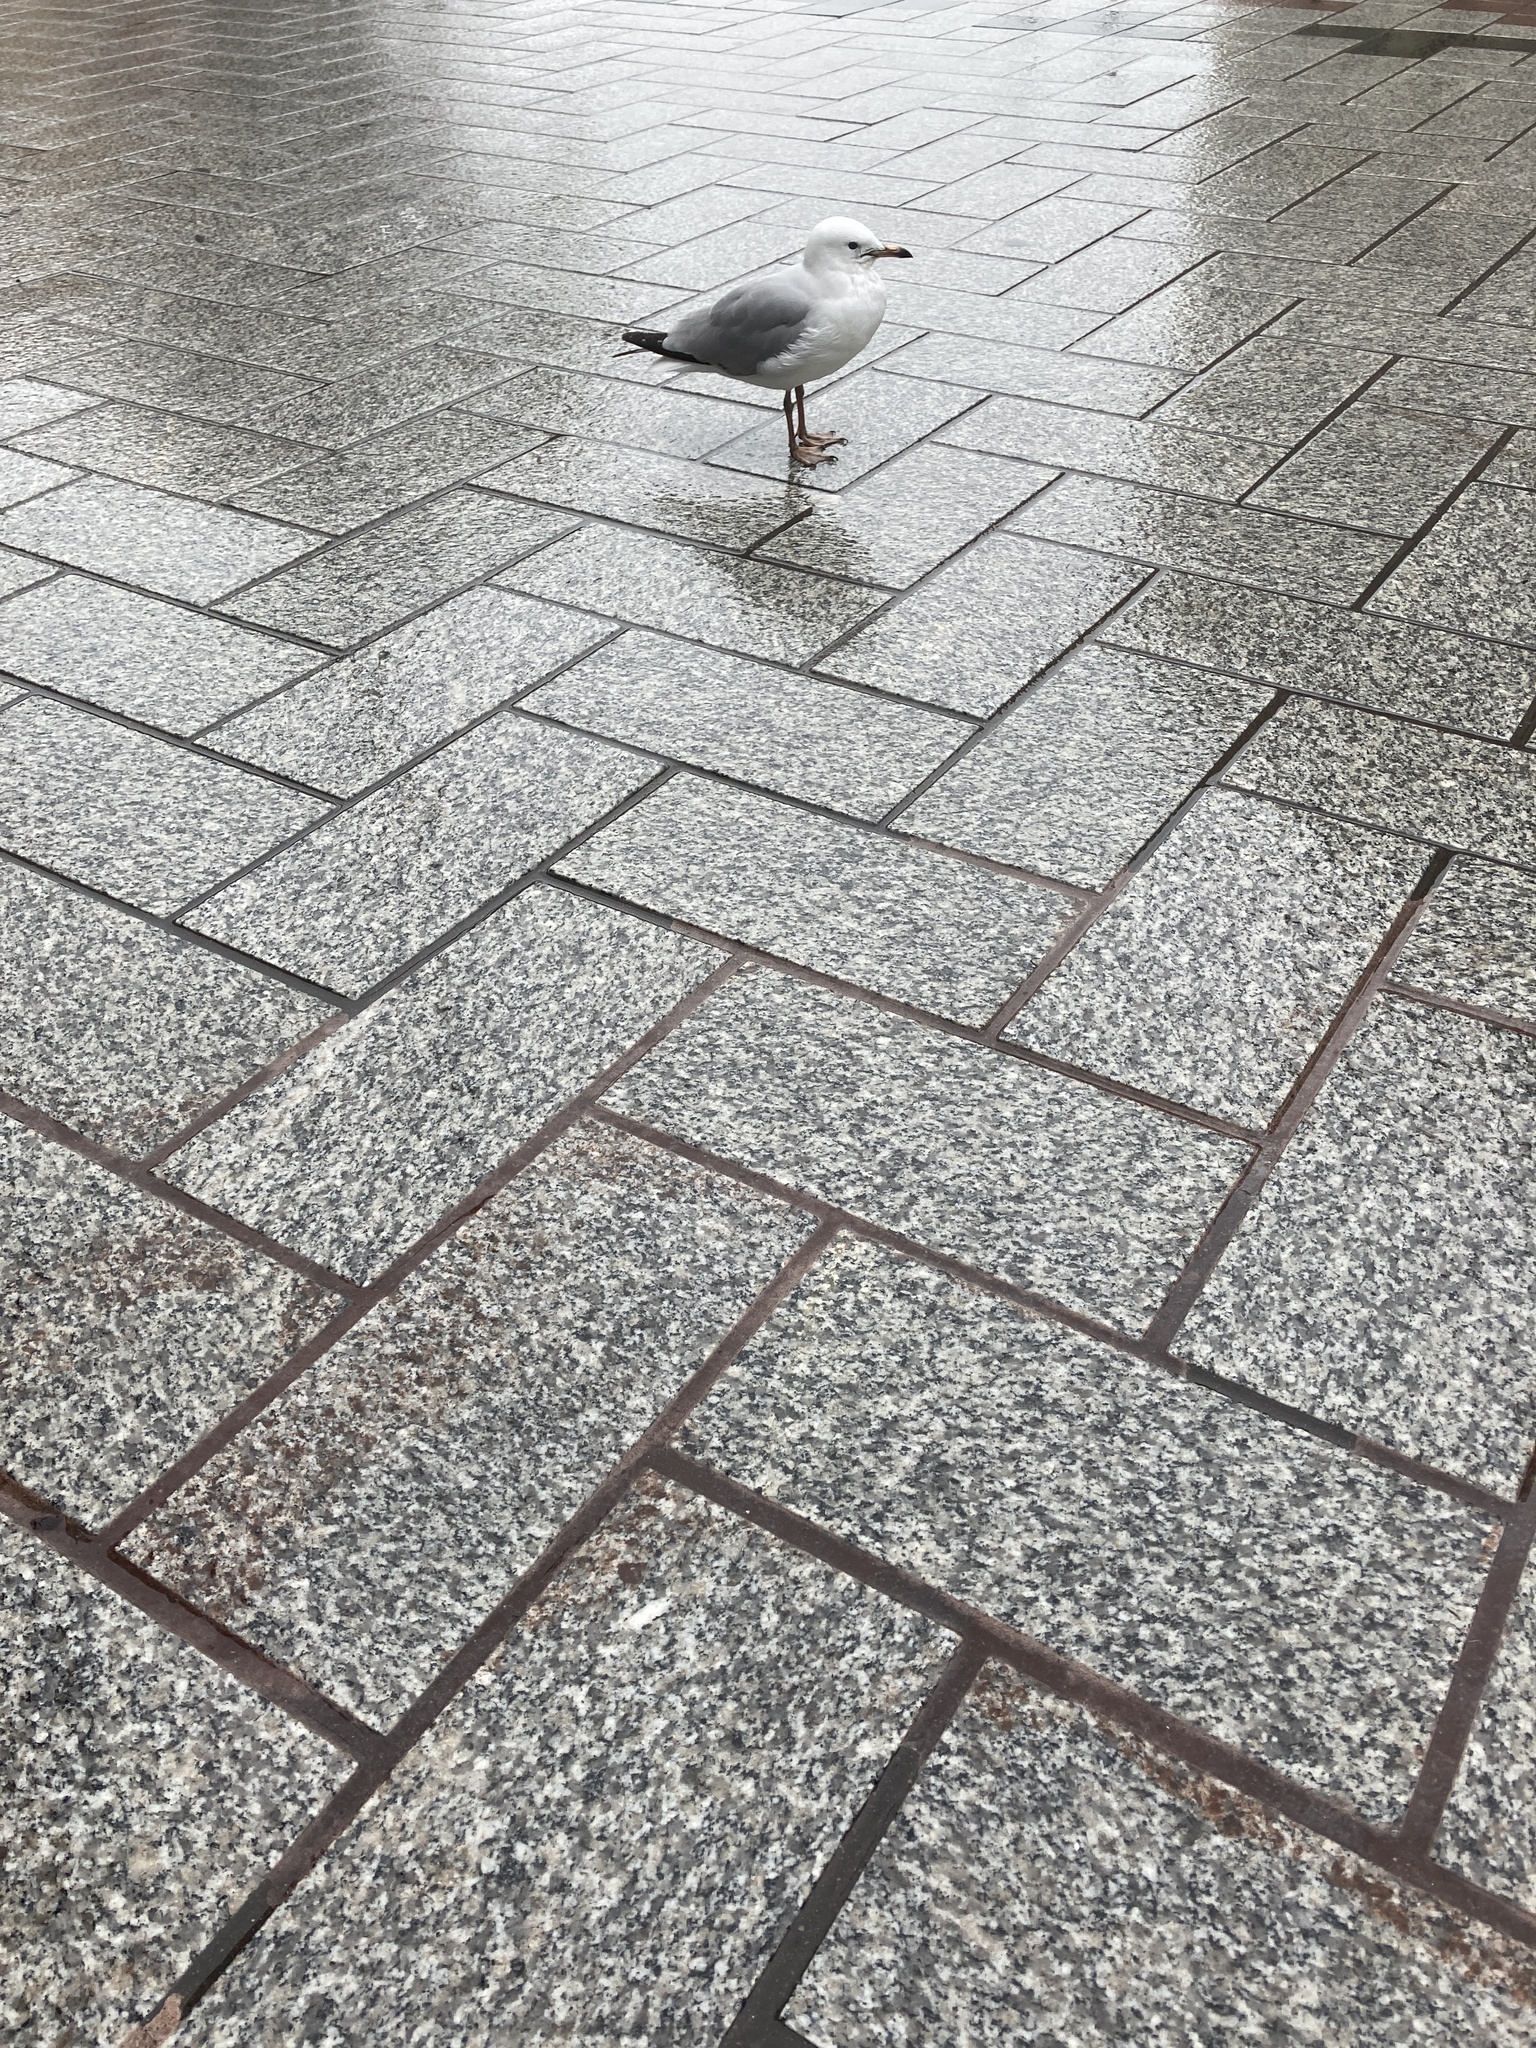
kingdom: Animalia
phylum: Chordata
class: Aves
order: Charadriiformes
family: Laridae
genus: Chroicocephalus
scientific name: Chroicocephalus novaehollandiae
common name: Silver gull
